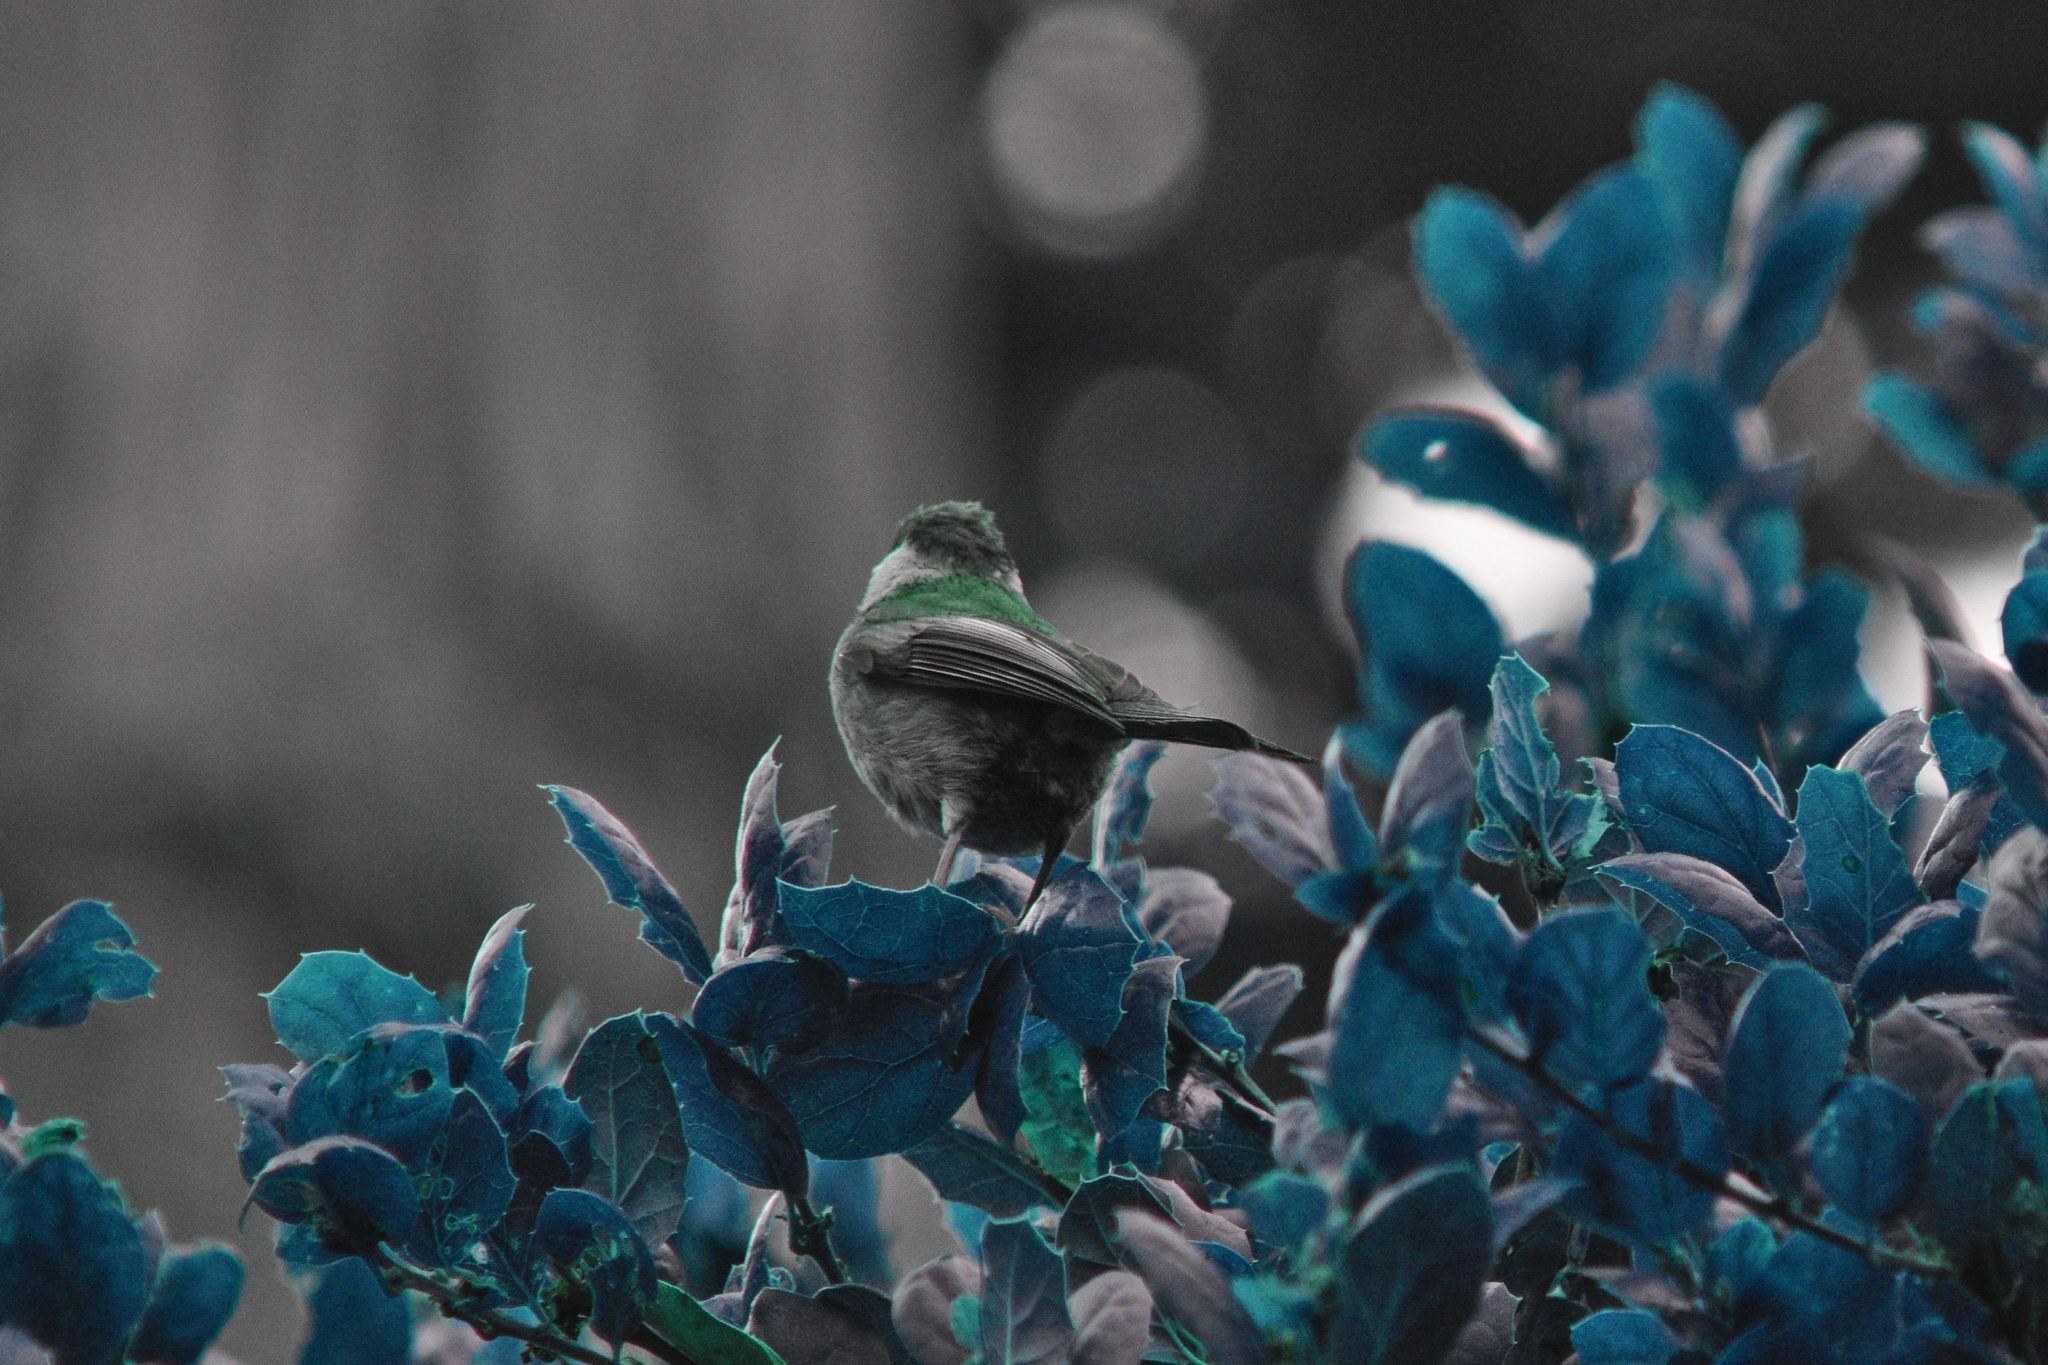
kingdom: Animalia
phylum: Chordata
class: Aves
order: Passeriformes
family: Paridae
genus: Poecile
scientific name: Poecile rufescens
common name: Chestnut-backed chickadee
